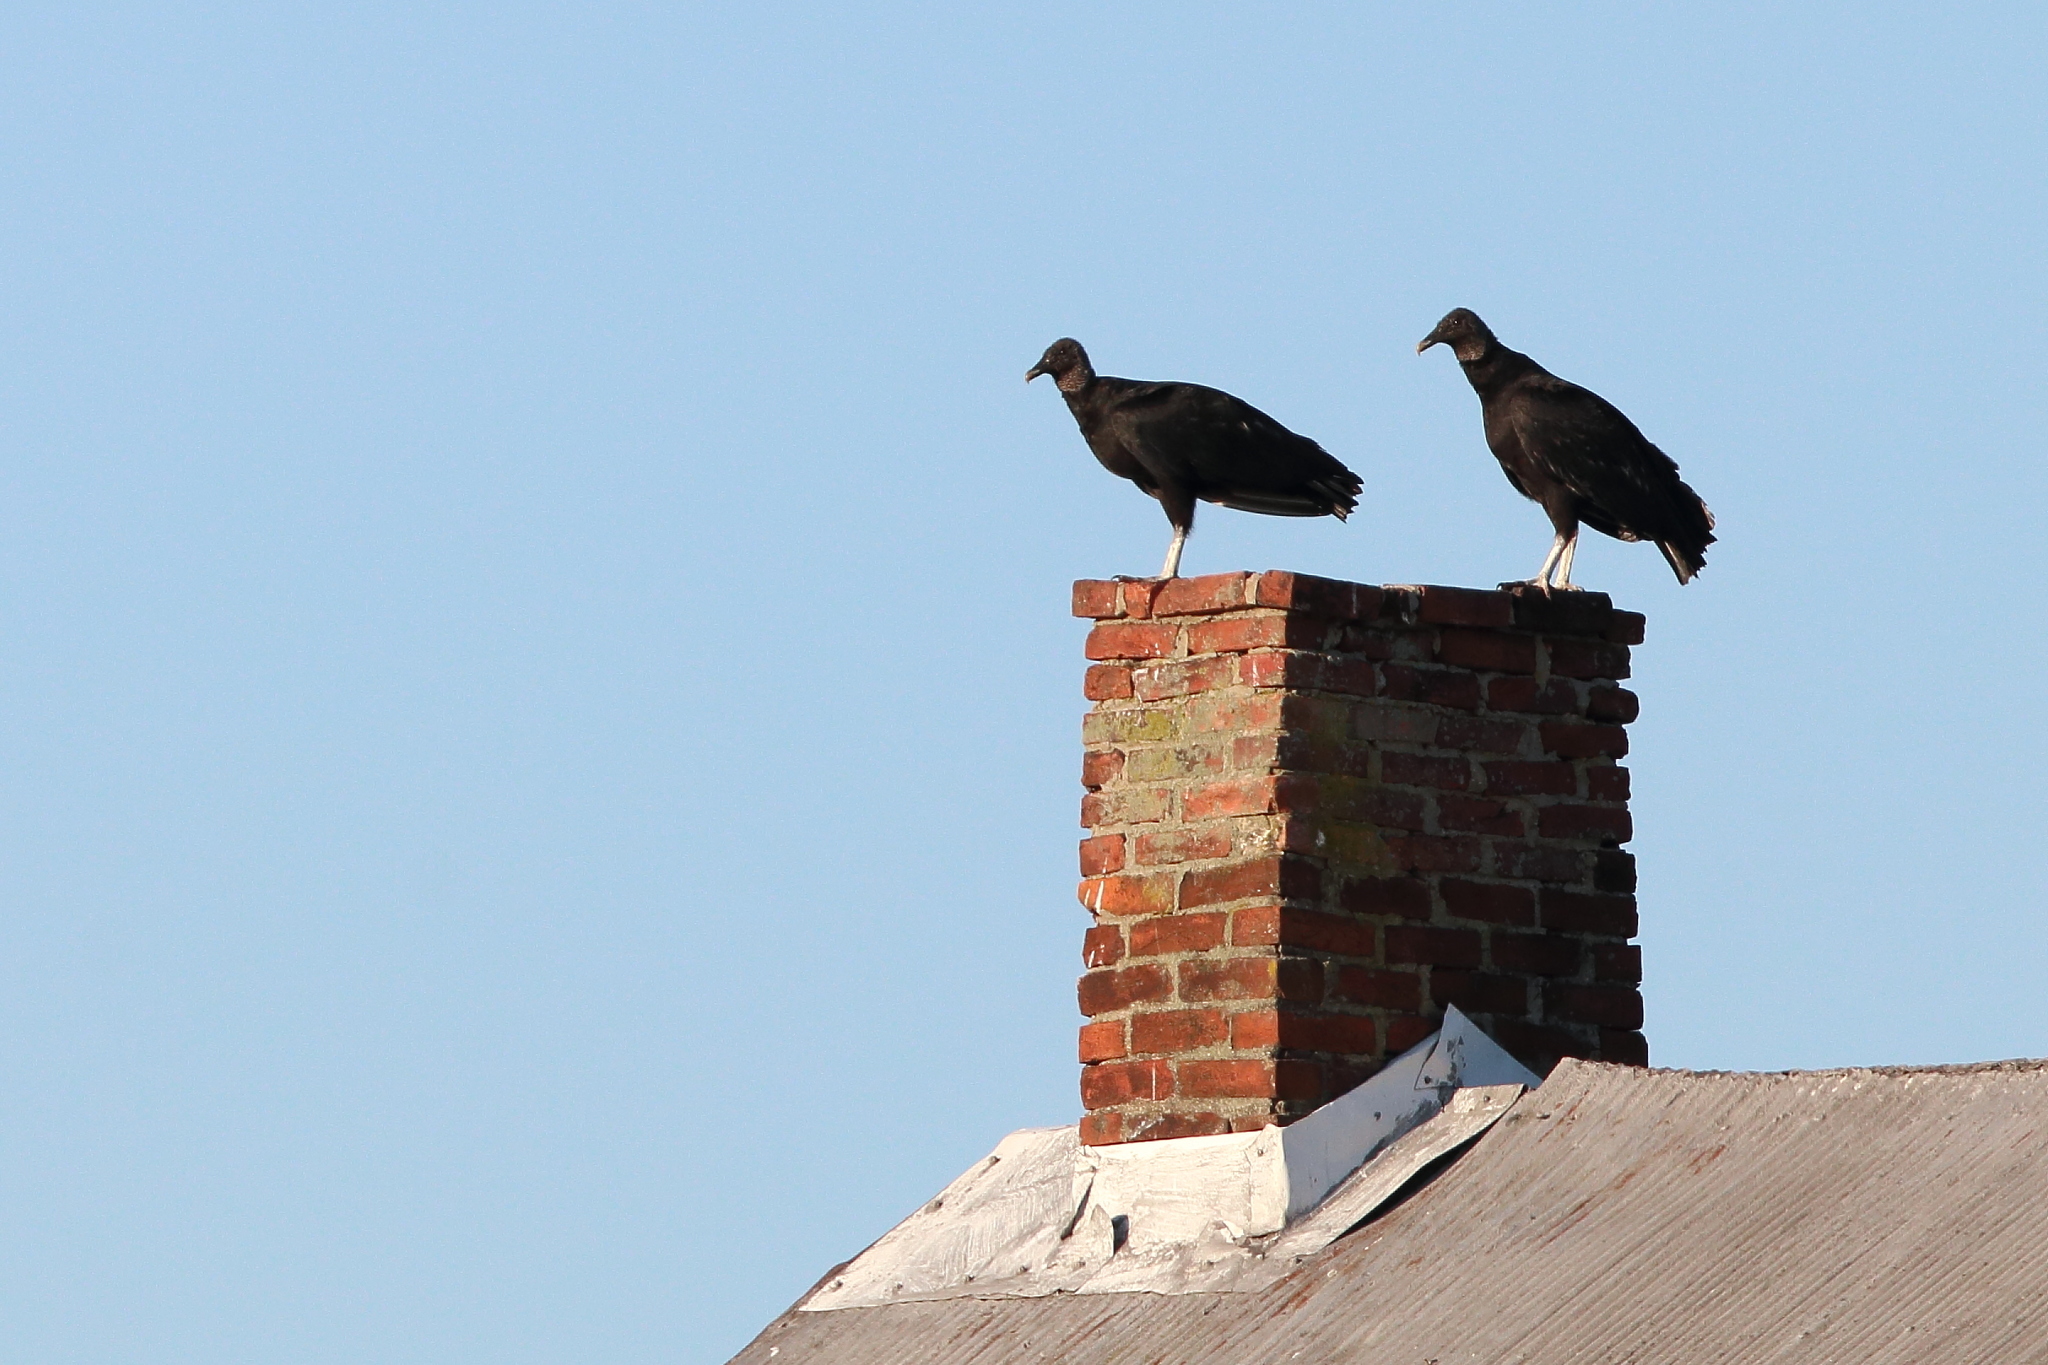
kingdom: Animalia
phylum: Chordata
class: Aves
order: Accipitriformes
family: Cathartidae
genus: Coragyps
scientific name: Coragyps atratus
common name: Black vulture
